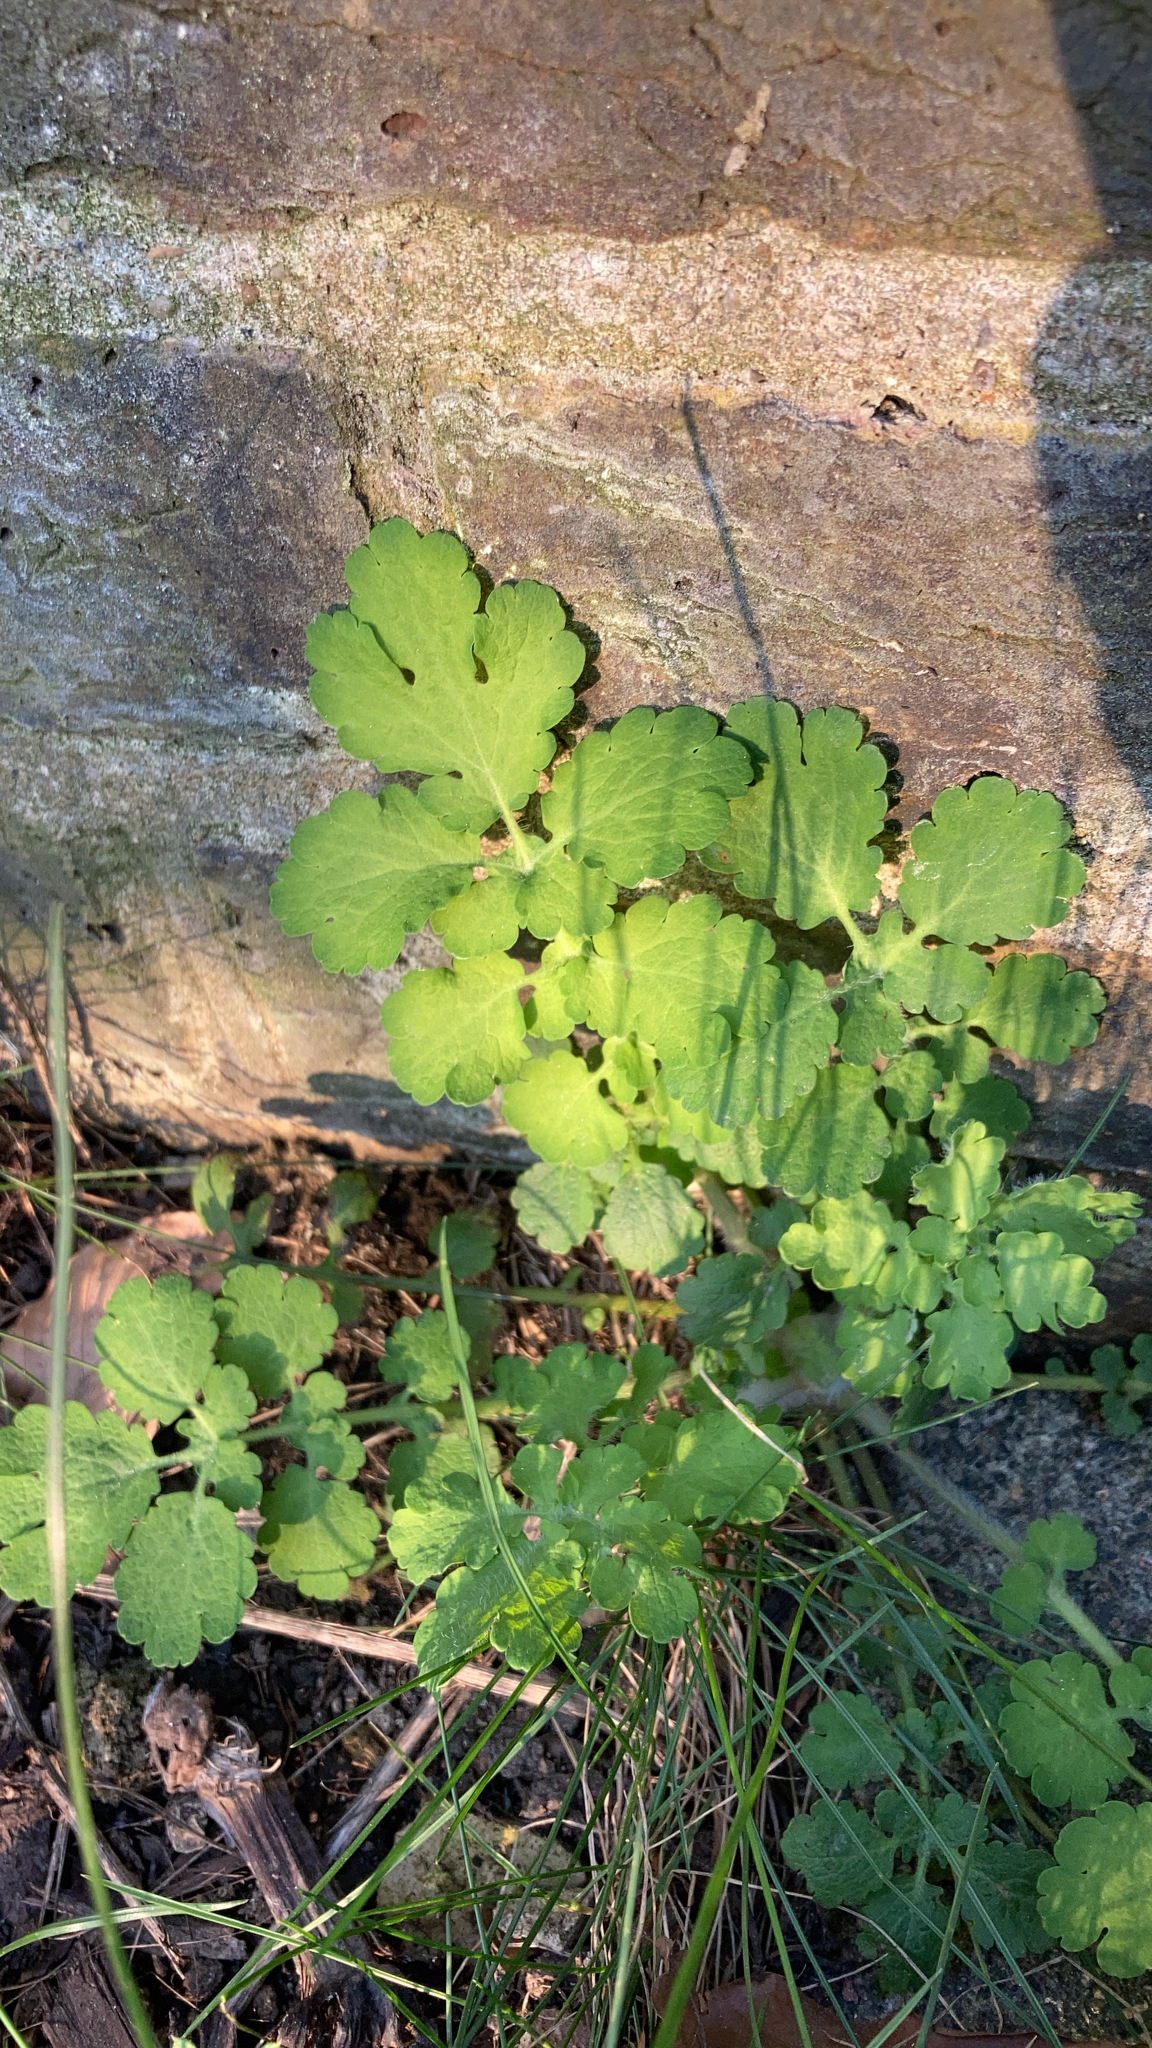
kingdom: Plantae
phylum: Tracheophyta
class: Magnoliopsida
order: Ranunculales
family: Papaveraceae
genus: Chelidonium
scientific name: Chelidonium majus
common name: Greater celandine
